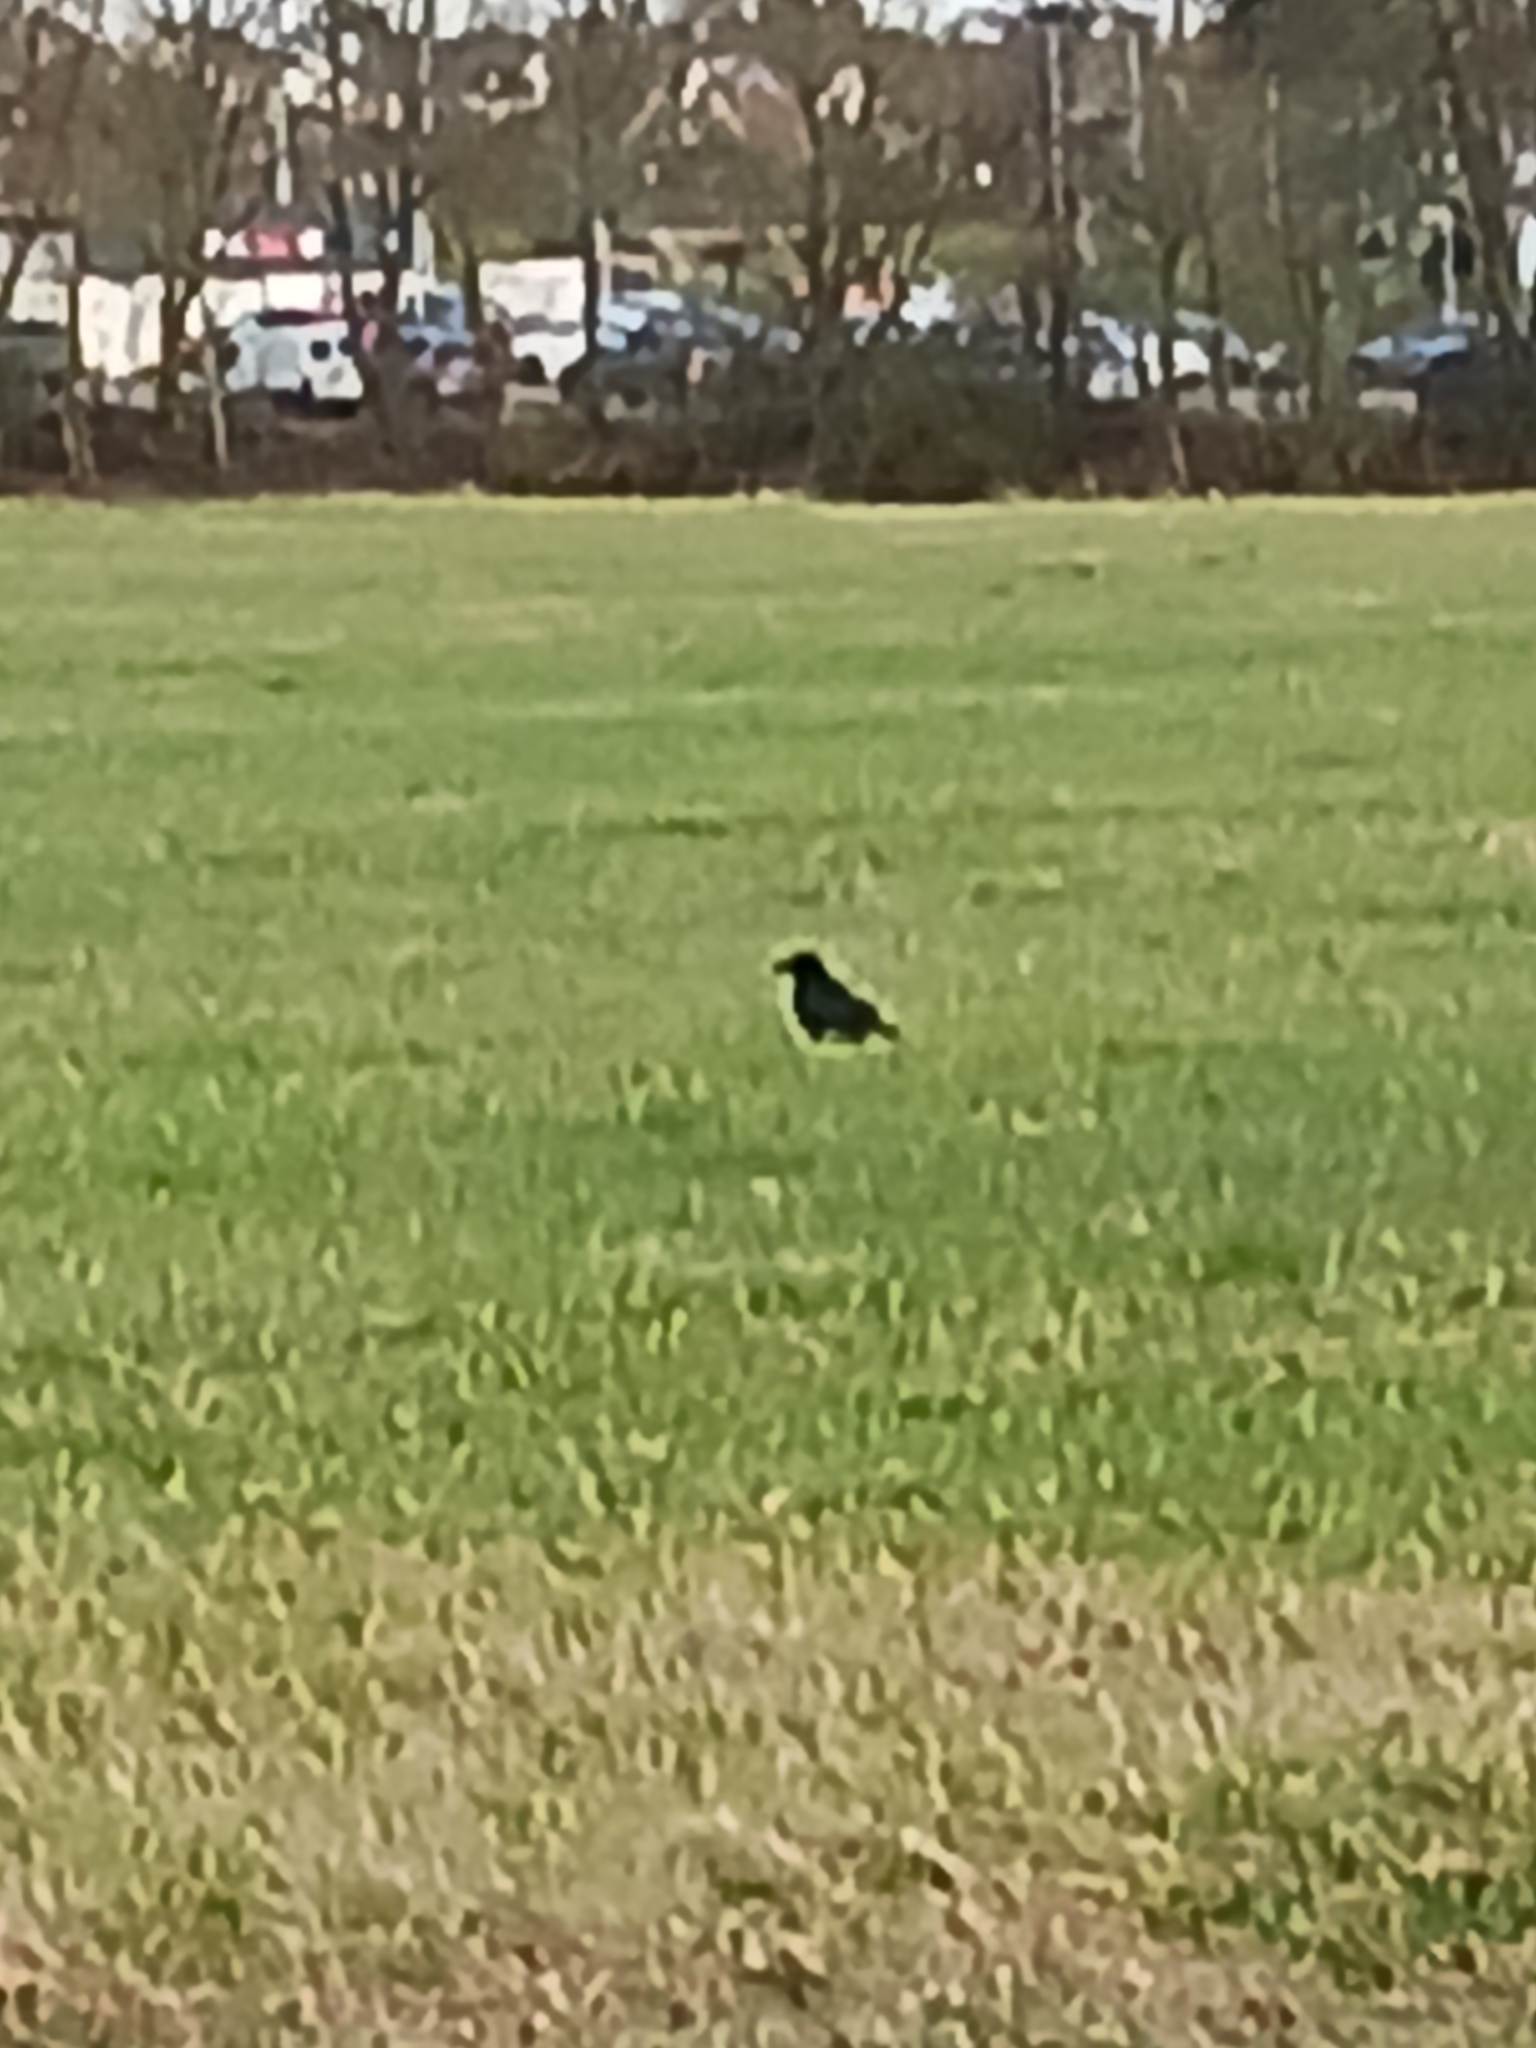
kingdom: Animalia
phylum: Chordata
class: Aves
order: Passeriformes
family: Corvidae
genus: Corvus
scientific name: Corvus corone
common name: Carrion crow
